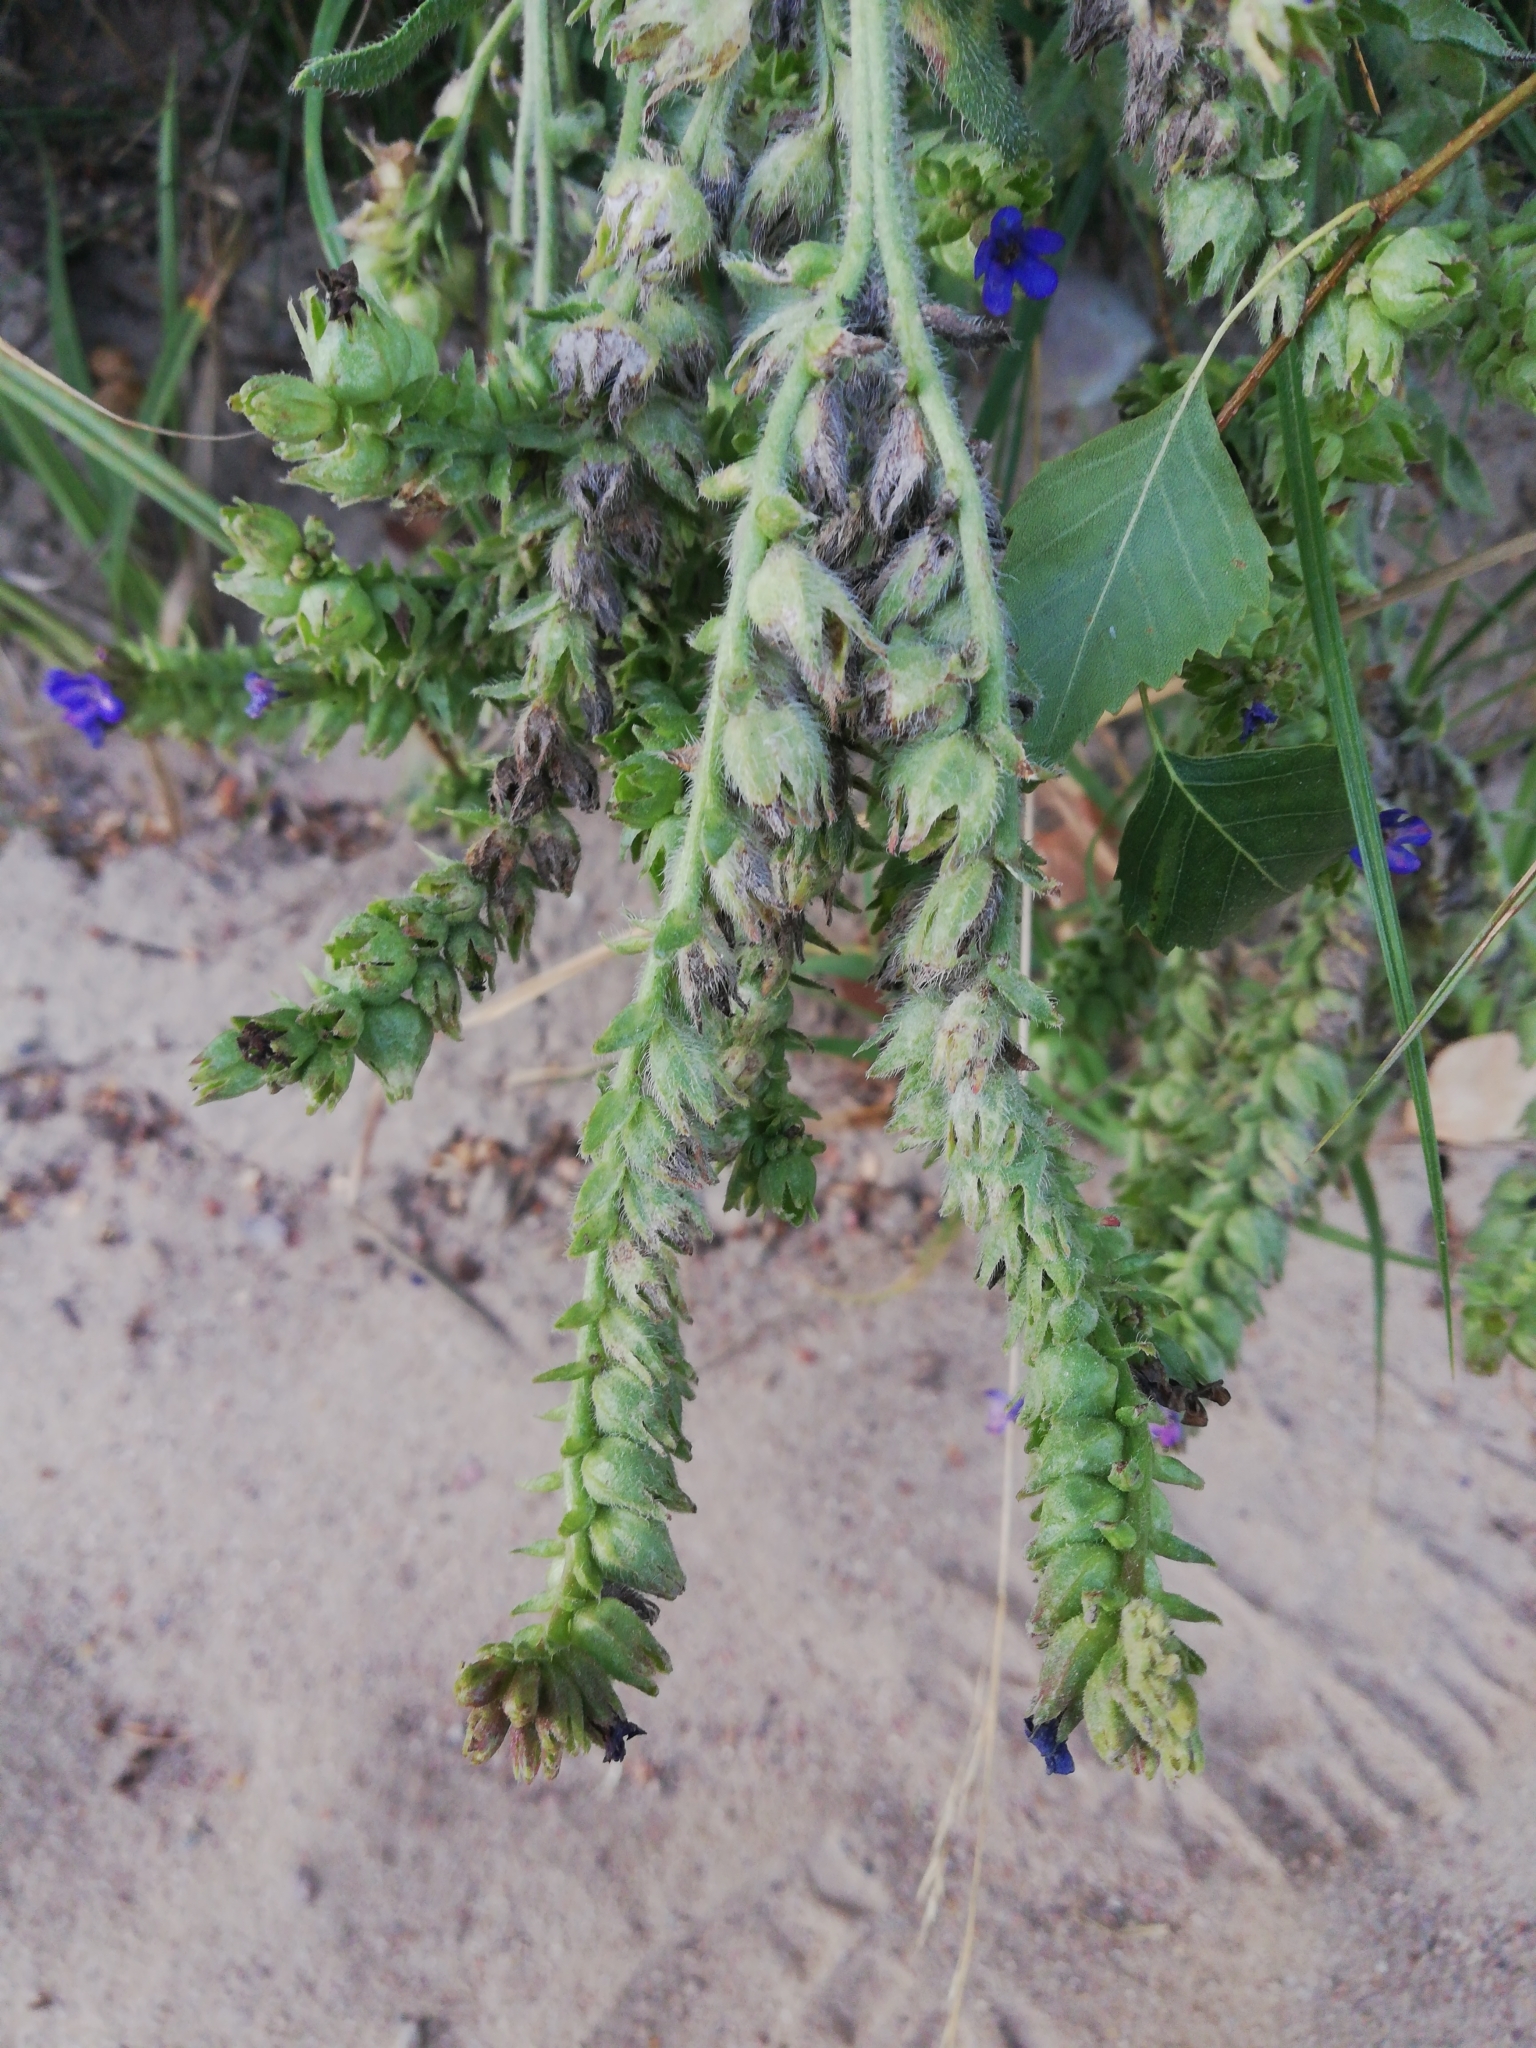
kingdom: Plantae
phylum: Tracheophyta
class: Magnoliopsida
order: Boraginales
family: Boraginaceae
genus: Anchusa
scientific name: Anchusa officinalis
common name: Alkanet
